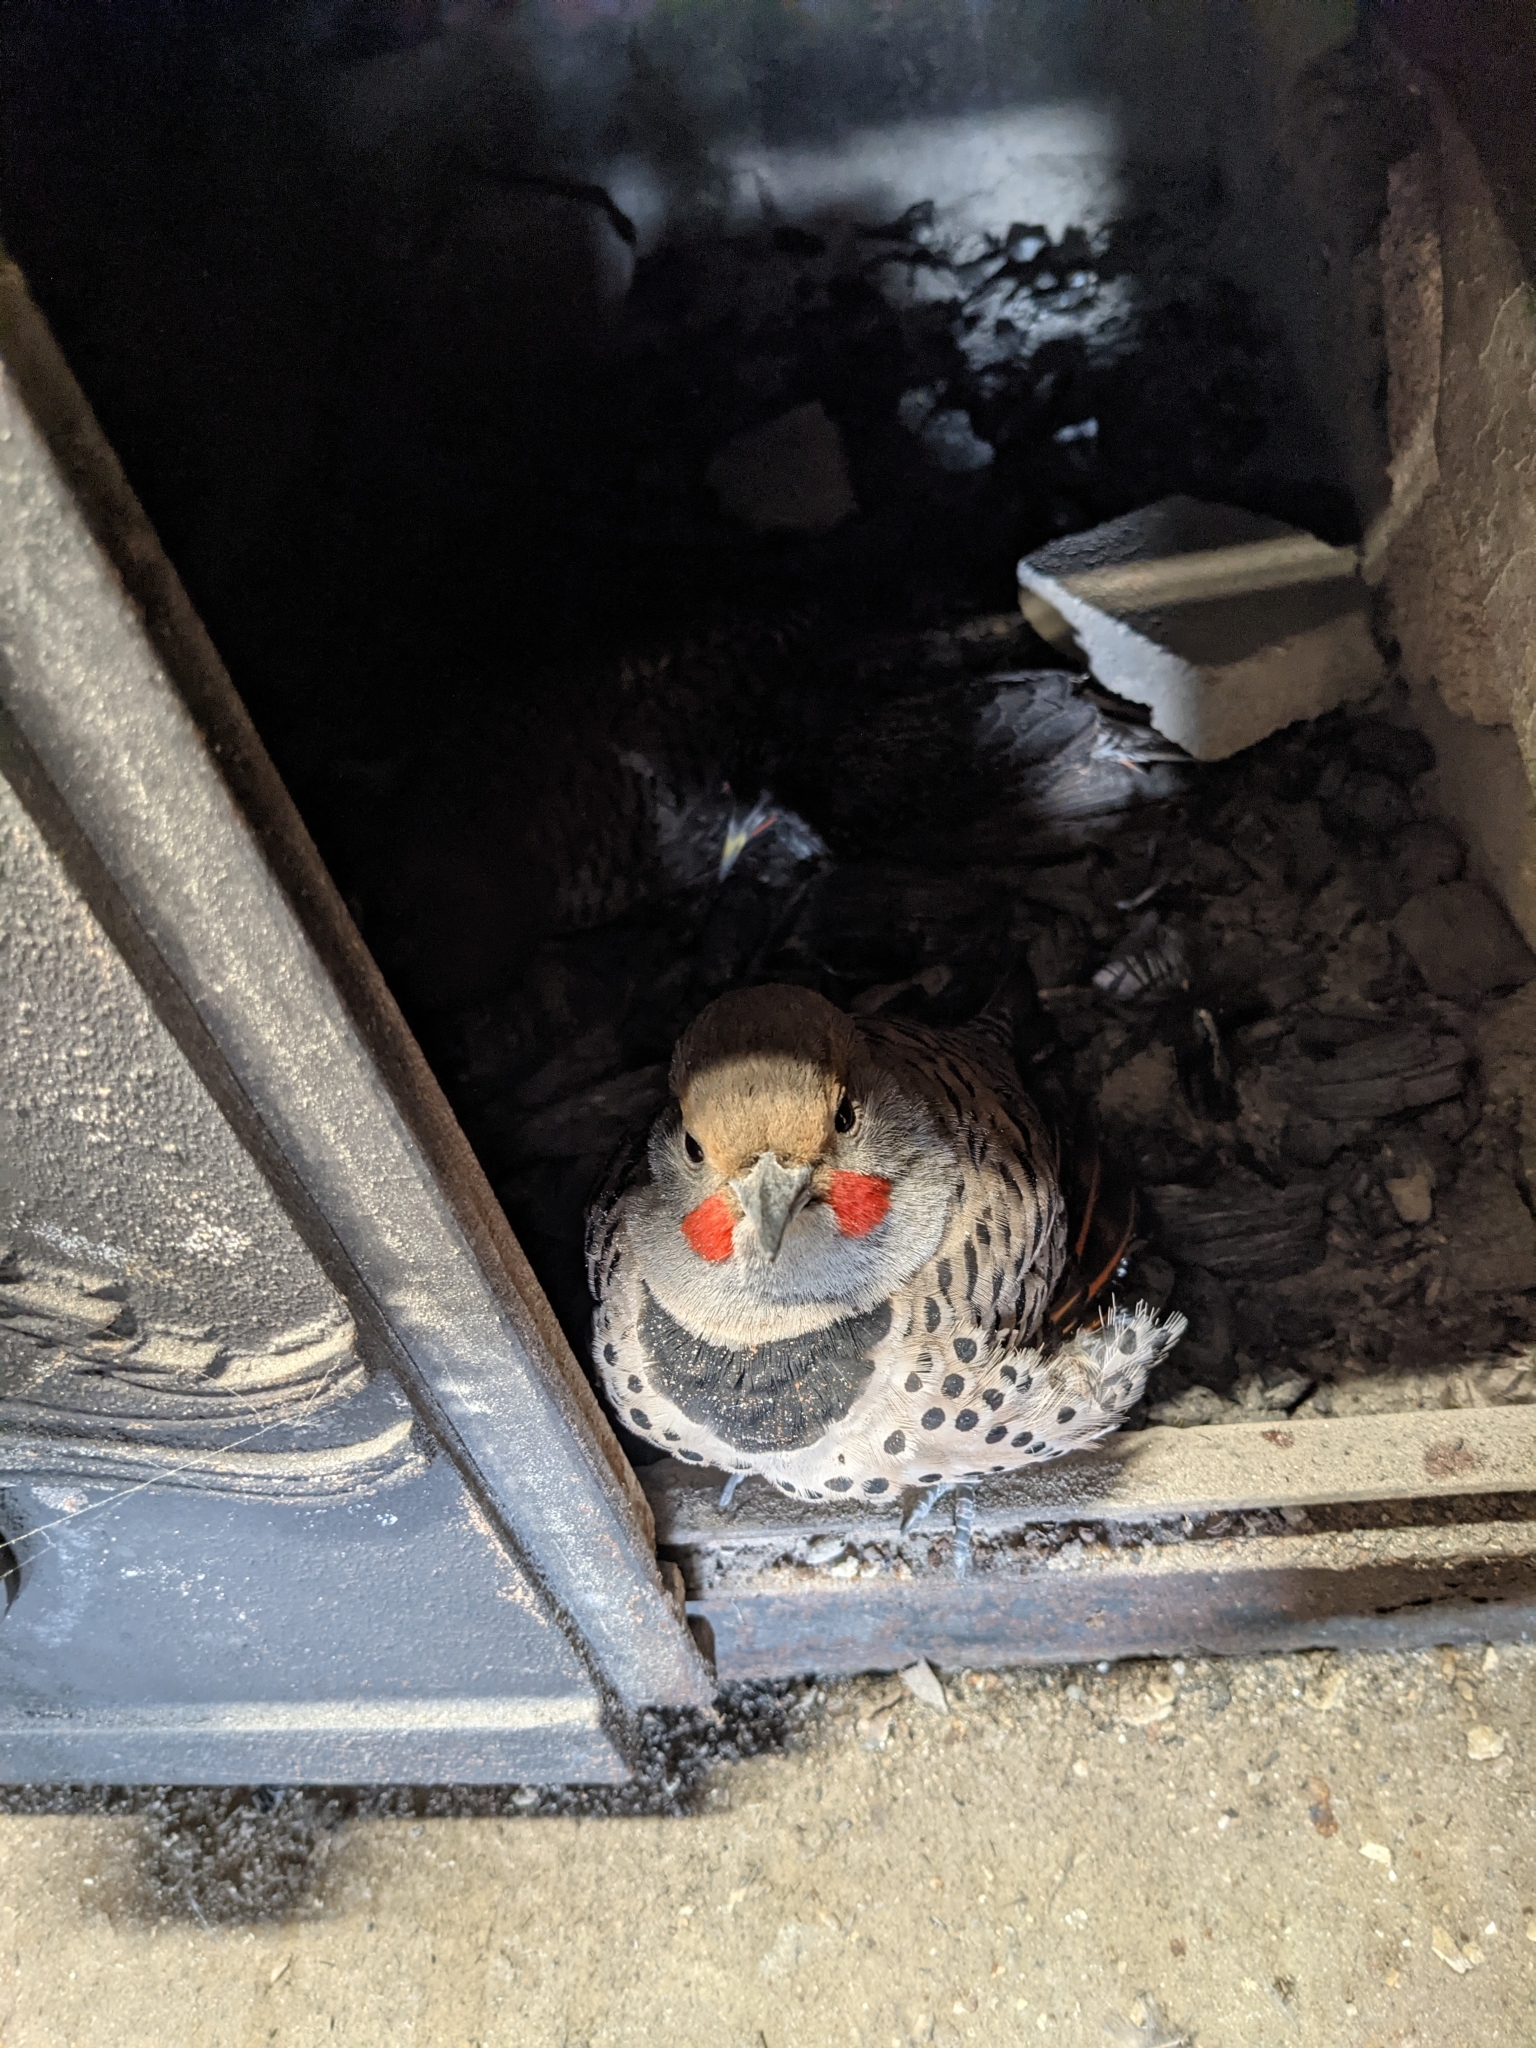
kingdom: Animalia
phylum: Chordata
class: Aves
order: Piciformes
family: Picidae
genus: Colaptes
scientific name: Colaptes auratus
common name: Northern flicker
